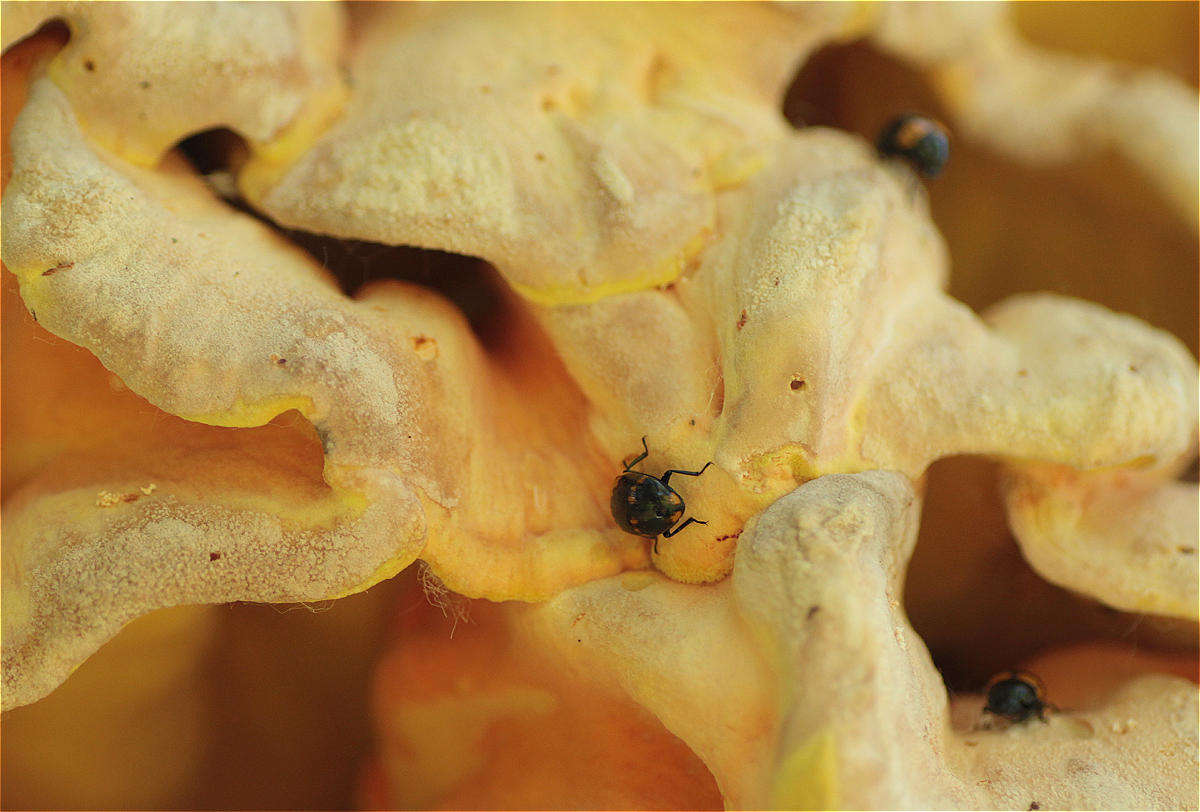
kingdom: Animalia
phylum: Arthropoda
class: Insecta
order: Coleoptera
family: Tenebrionidae
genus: Diaperis
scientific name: Diaperis boleti
